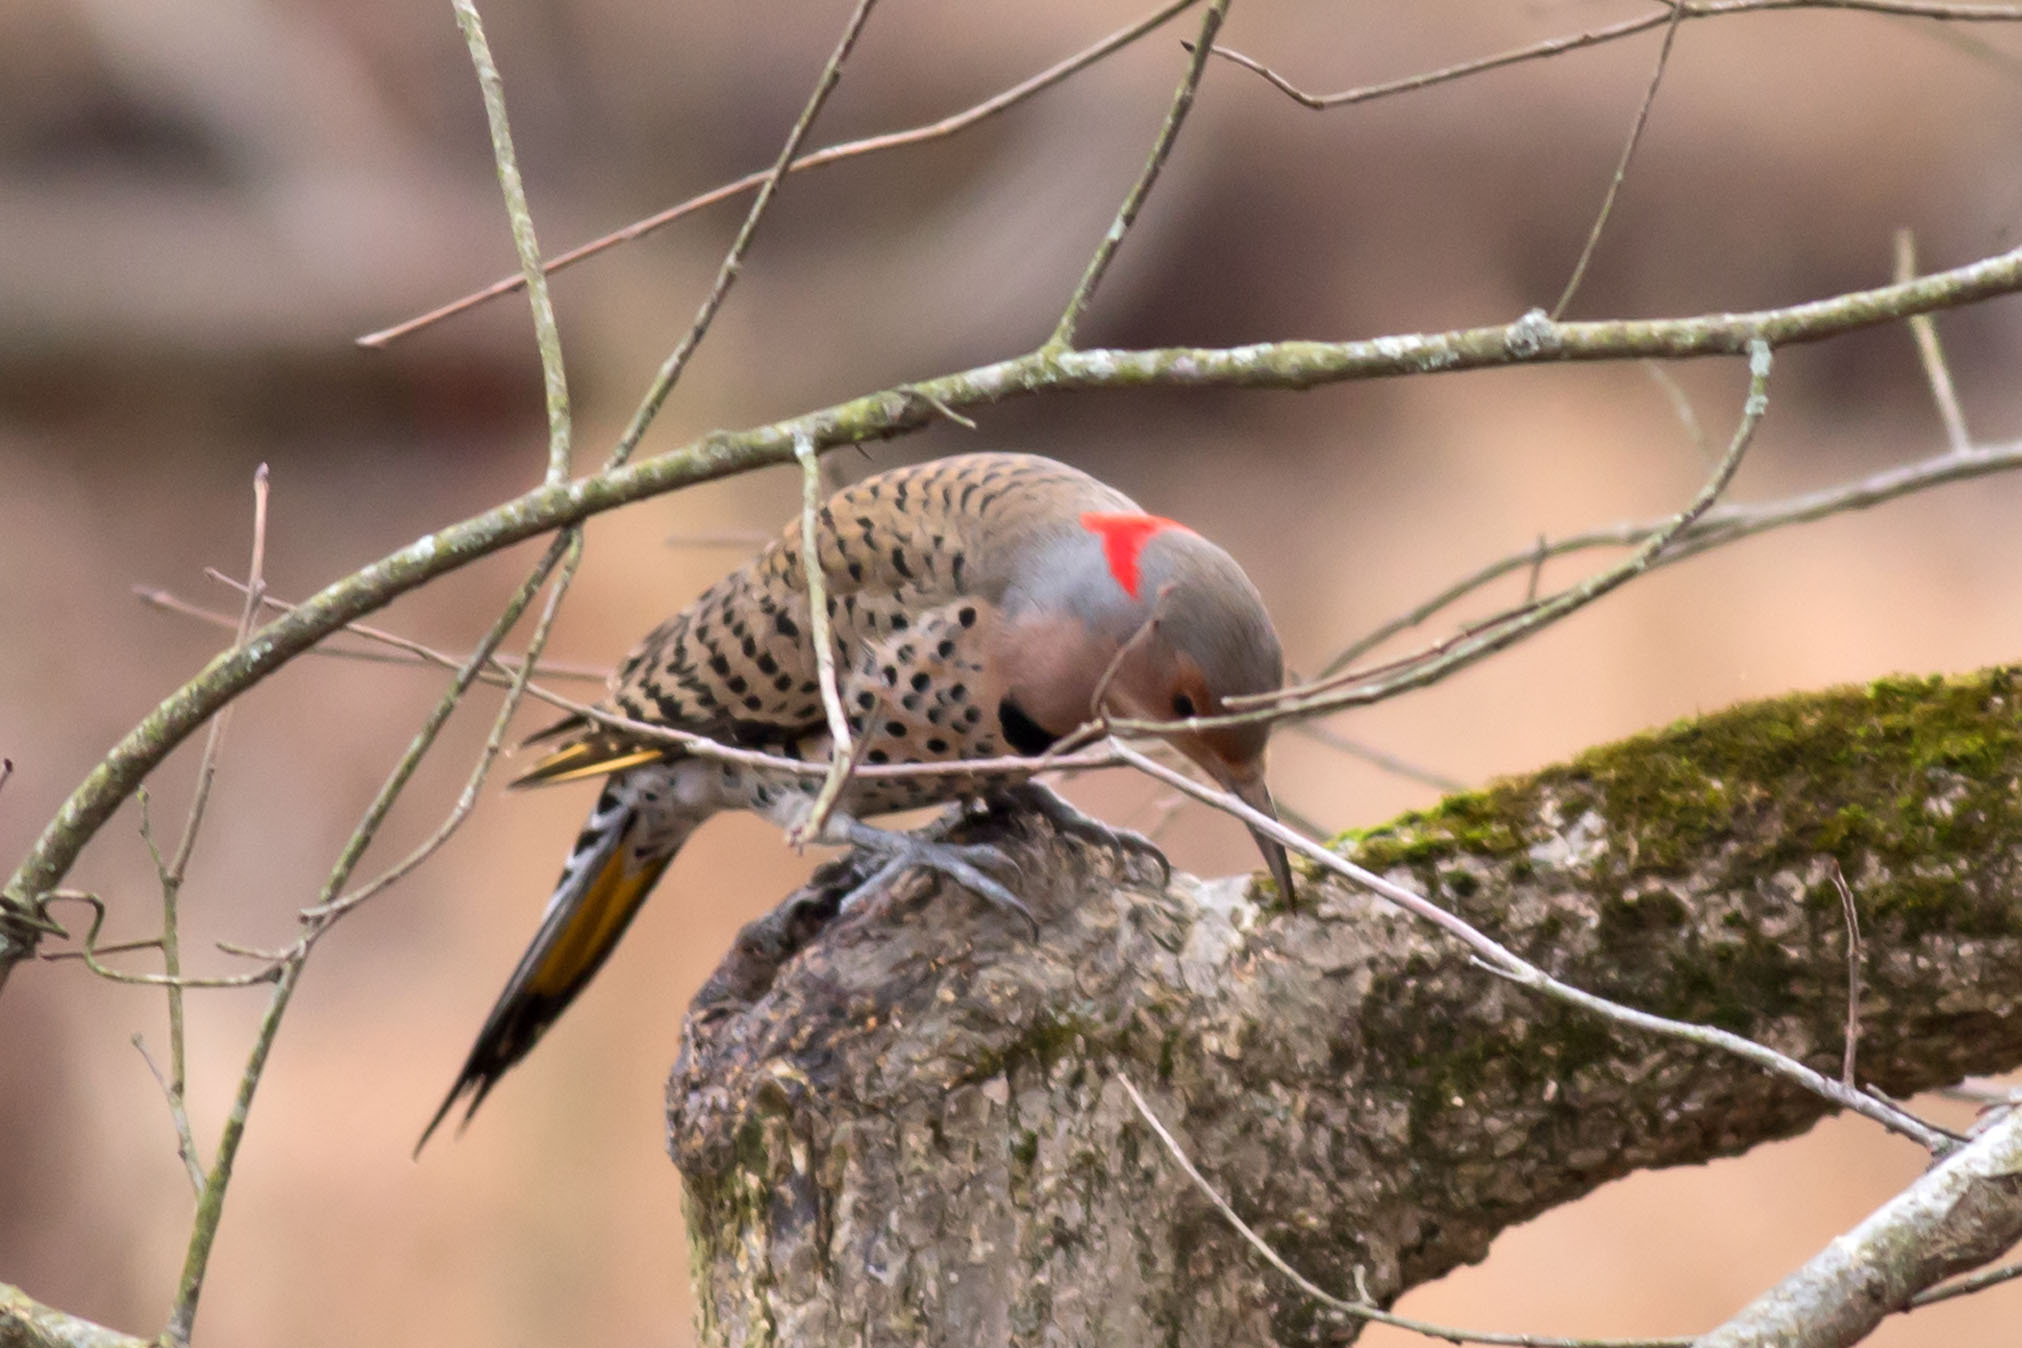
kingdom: Animalia
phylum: Chordata
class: Aves
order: Piciformes
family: Picidae
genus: Colaptes
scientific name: Colaptes auratus
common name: Northern flicker
